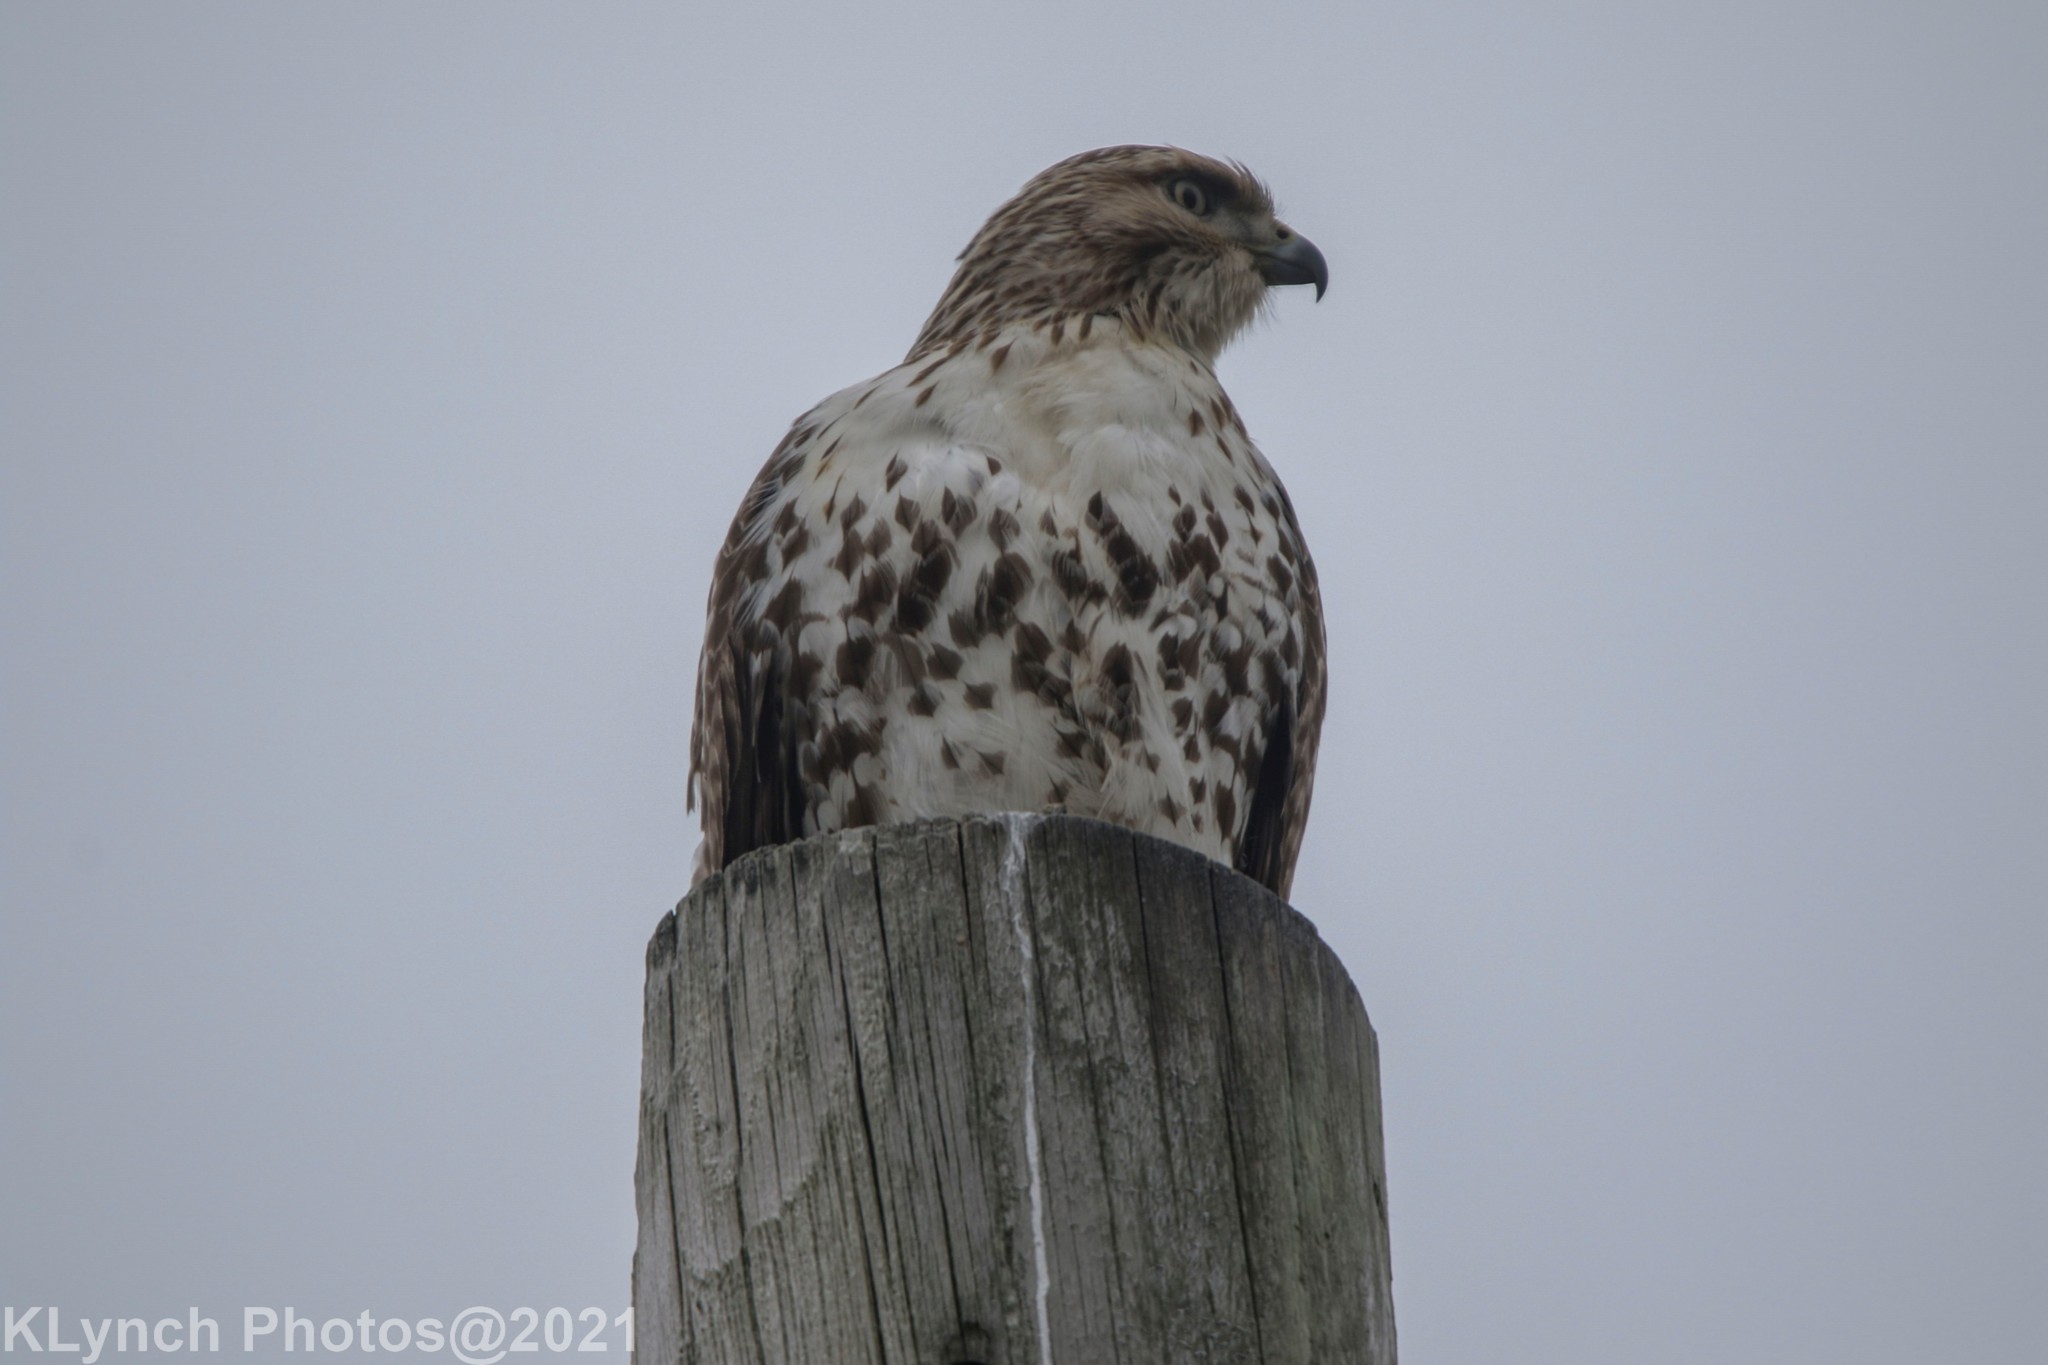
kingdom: Animalia
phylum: Chordata
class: Aves
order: Accipitriformes
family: Accipitridae
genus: Buteo
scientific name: Buteo jamaicensis
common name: Red-tailed hawk
